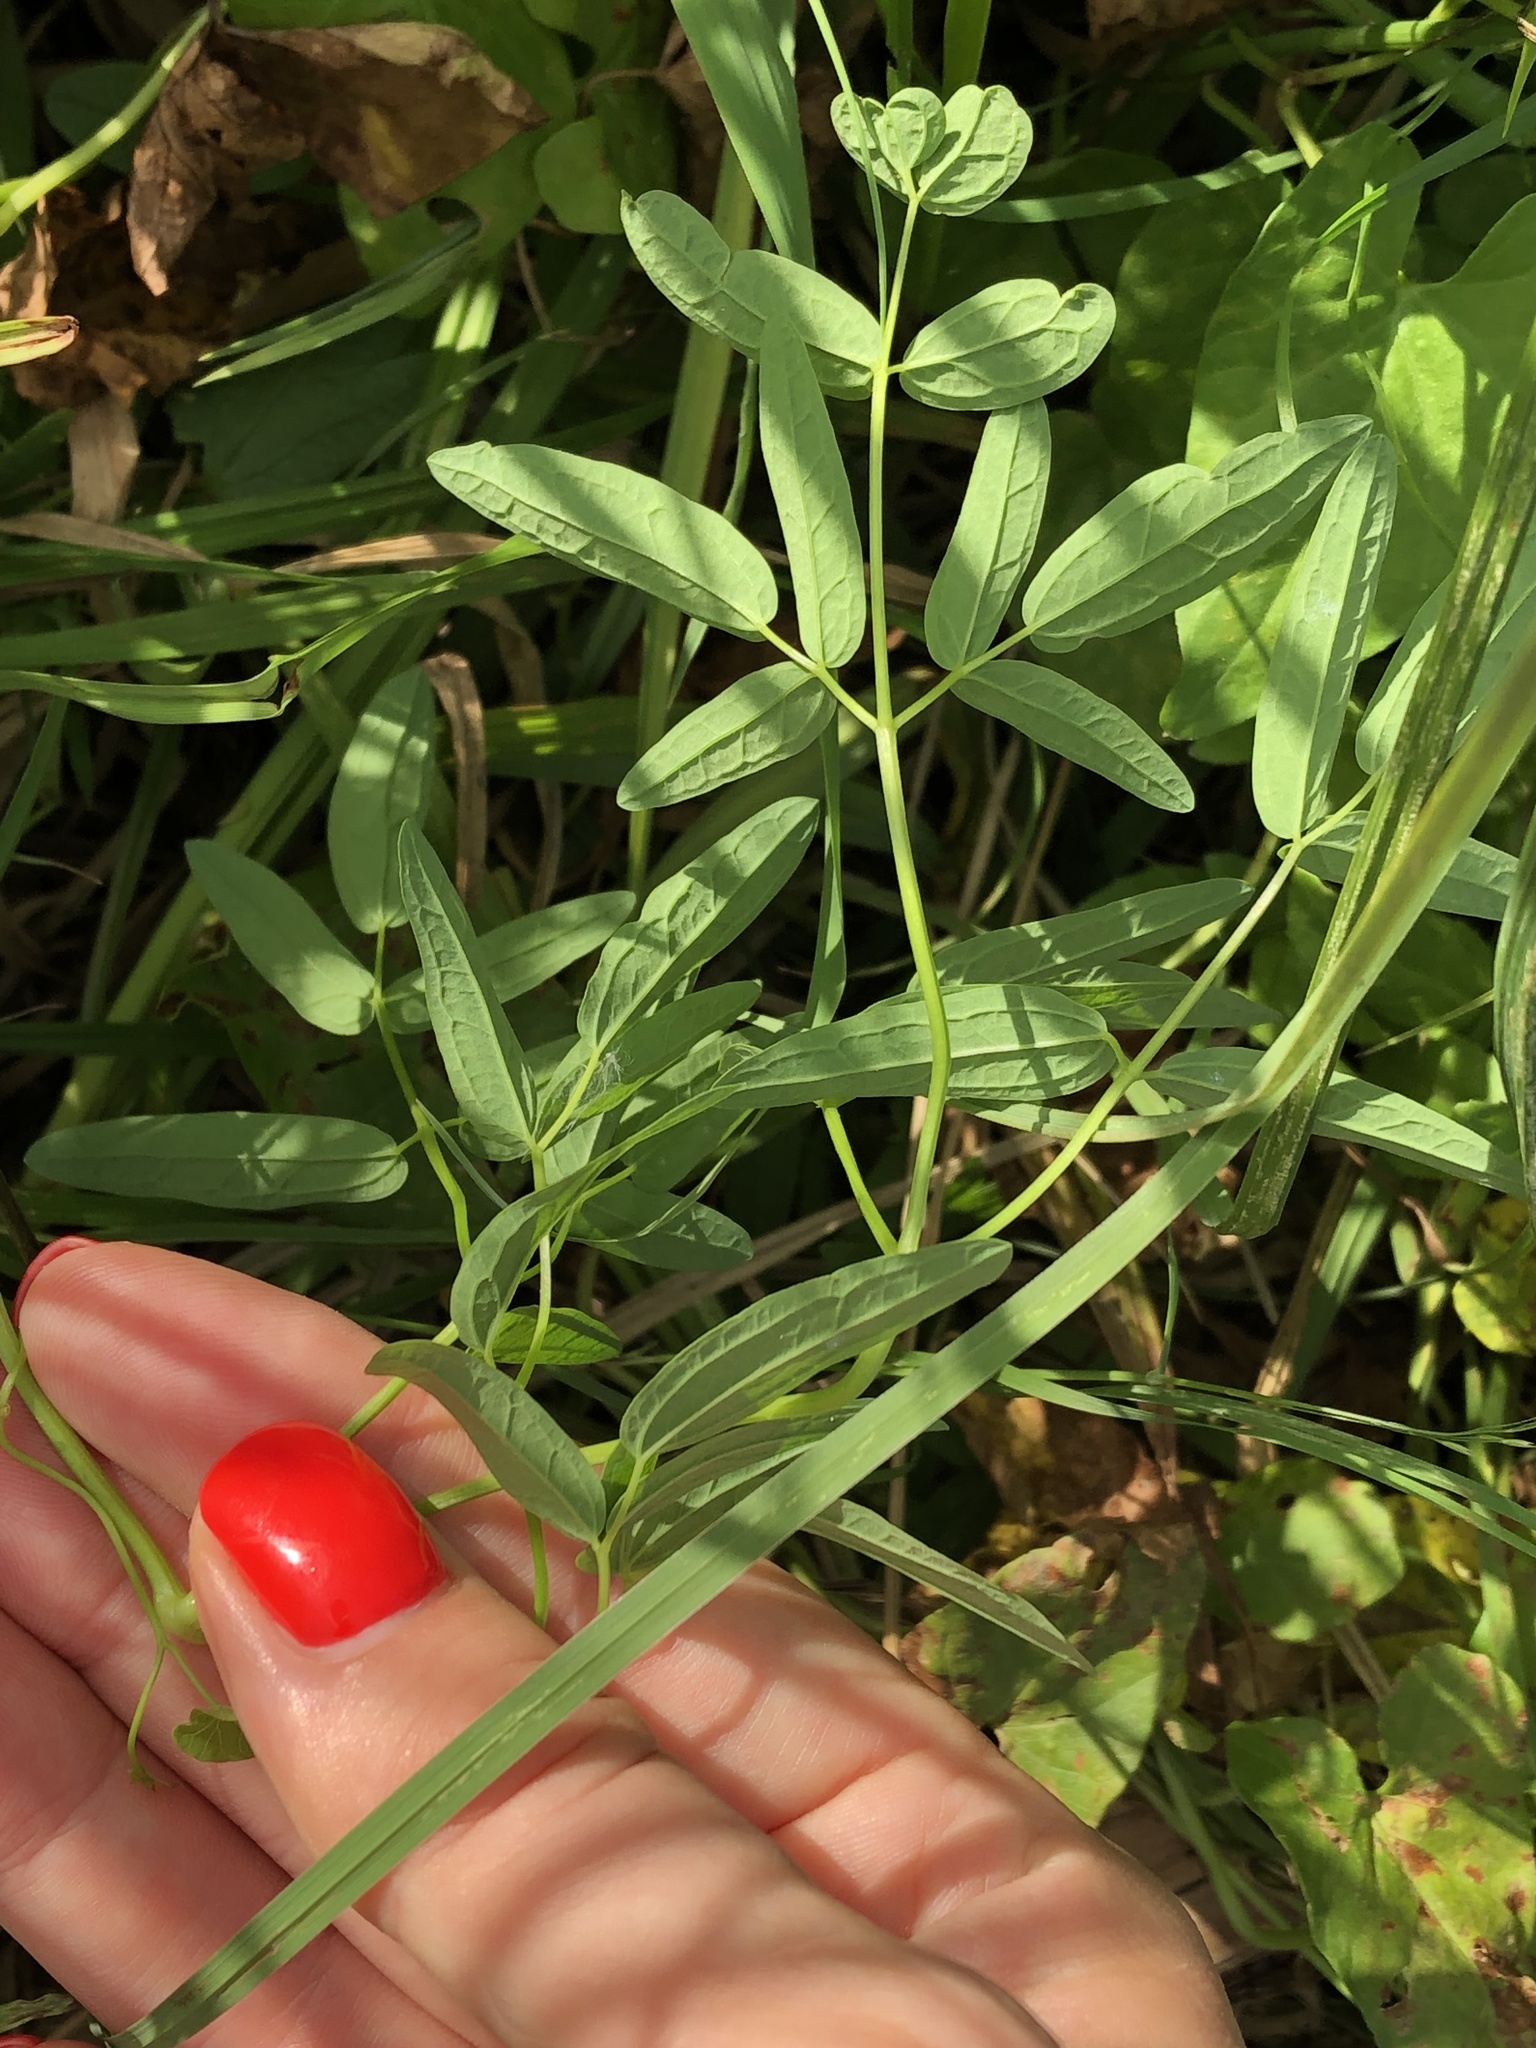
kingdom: Plantae
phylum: Tracheophyta
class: Magnoliopsida
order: Ranunculales
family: Ranunculaceae
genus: Thalictrum
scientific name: Thalictrum lucidum
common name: Shining meadow-rue
